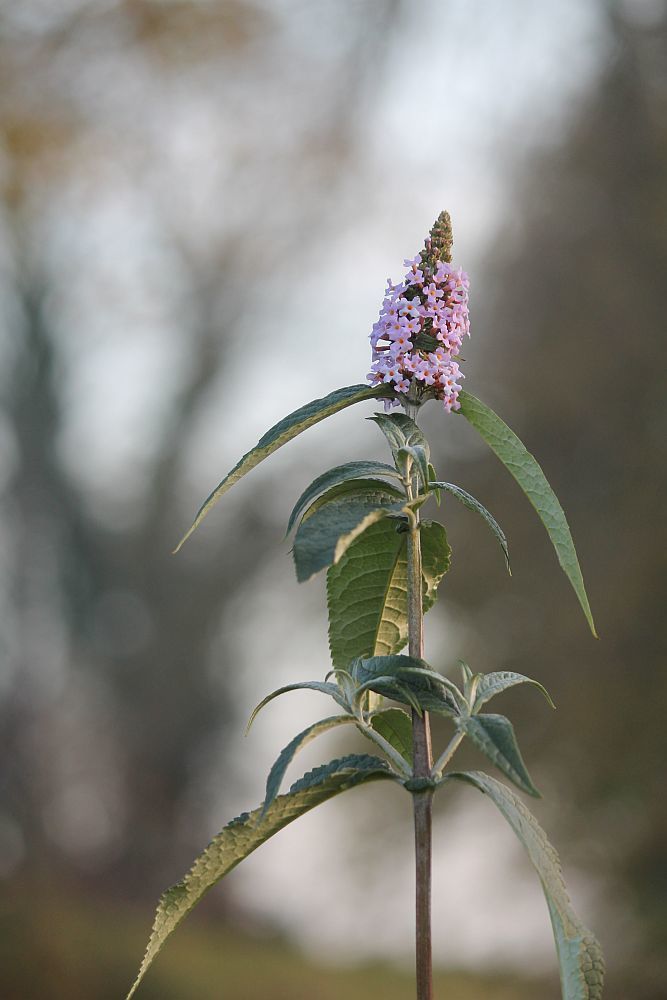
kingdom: Plantae
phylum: Tracheophyta
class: Magnoliopsida
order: Lamiales
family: Scrophulariaceae
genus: Buddleja
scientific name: Buddleja davidii
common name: Butterfly-bush
